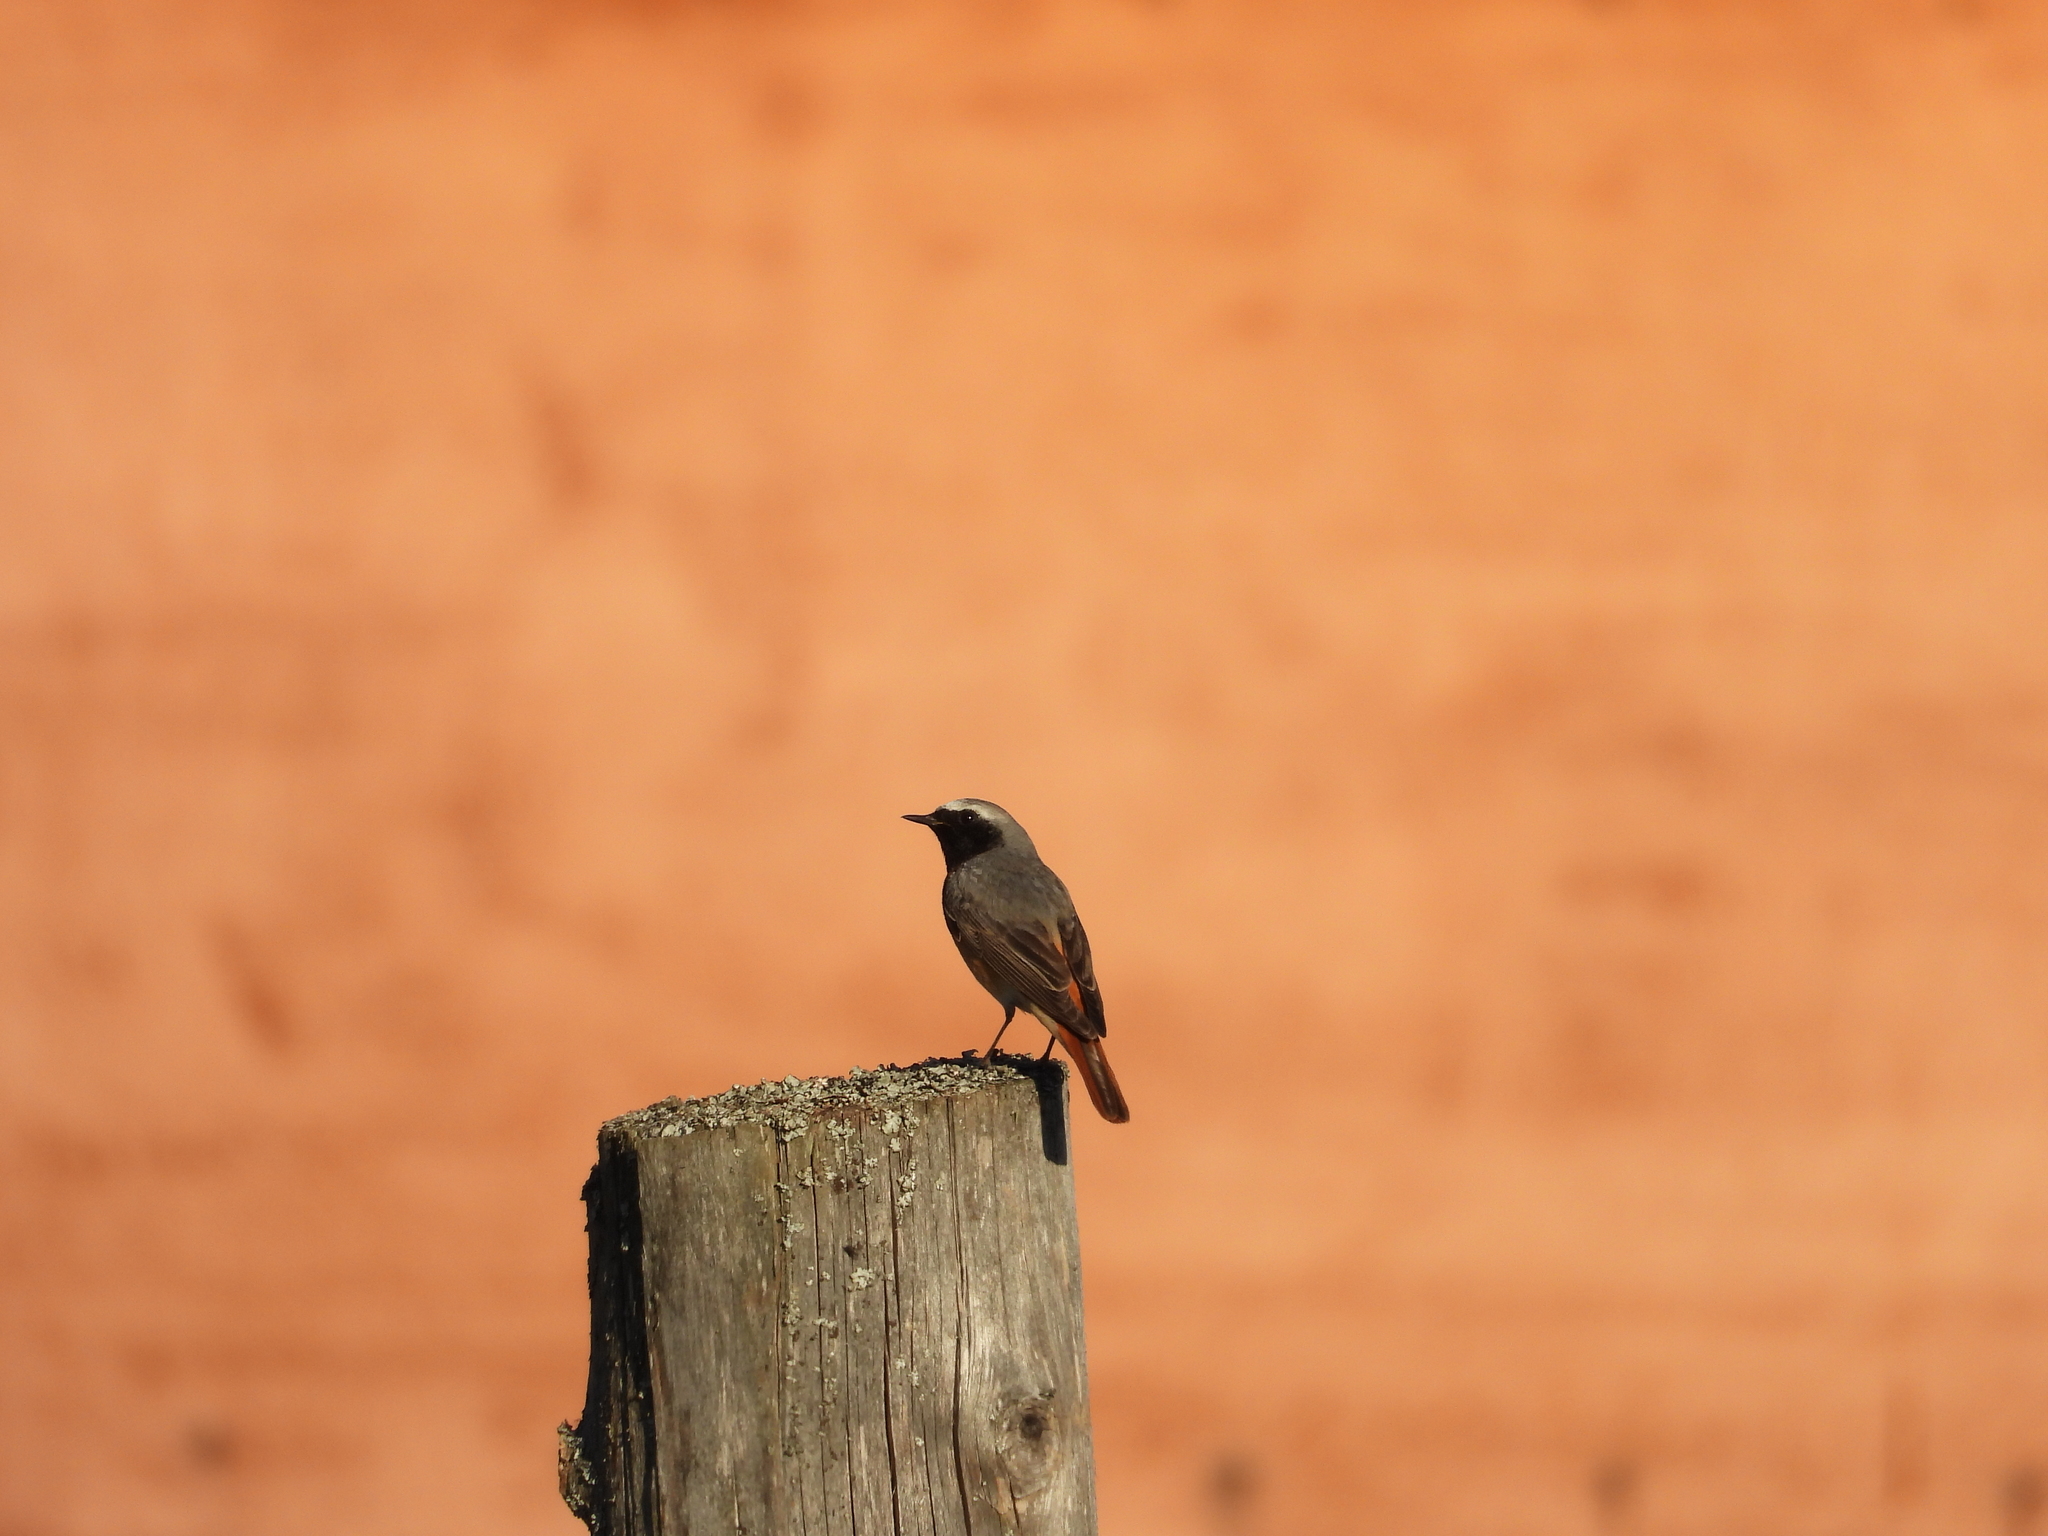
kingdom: Animalia
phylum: Chordata
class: Aves
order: Passeriformes
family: Muscicapidae
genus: Phoenicurus
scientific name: Phoenicurus phoenicurus
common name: Common redstart
